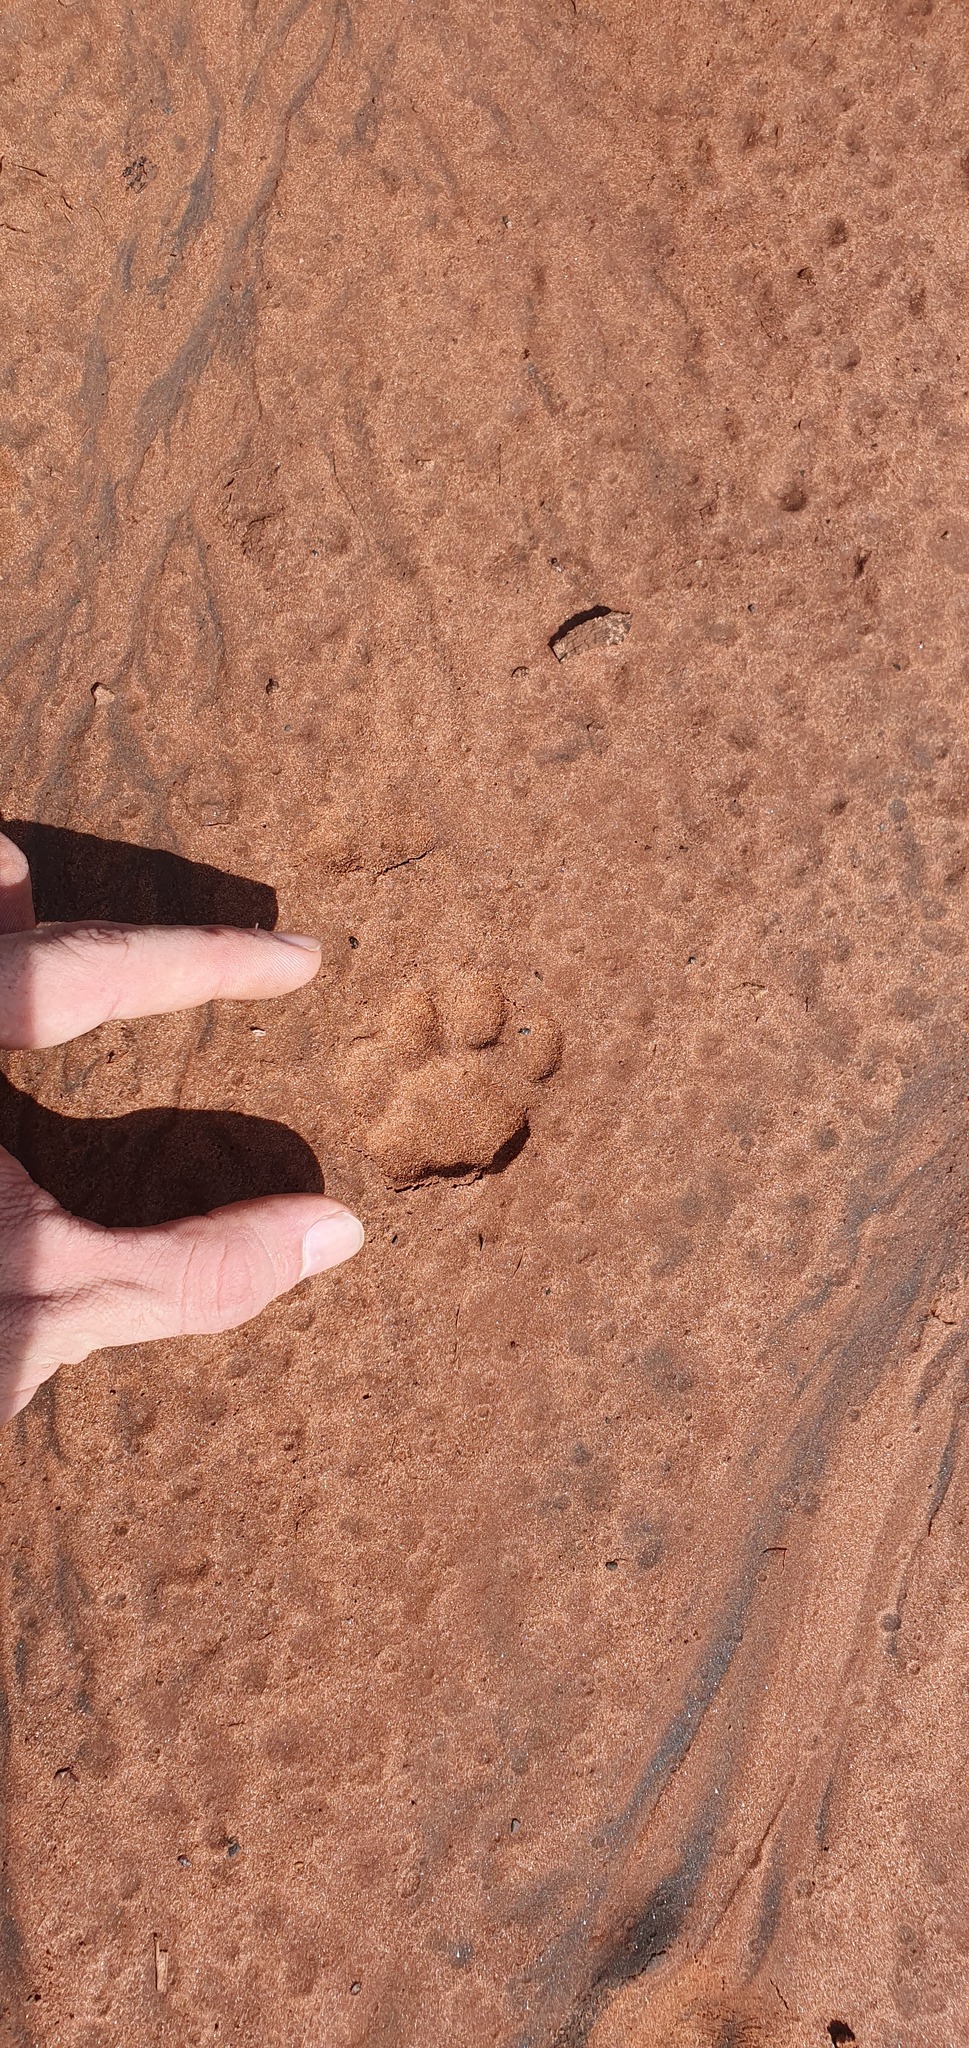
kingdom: Animalia
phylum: Chordata
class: Mammalia
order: Carnivora
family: Felidae
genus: Leopardus
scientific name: Leopardus pardalis
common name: Ocelot
